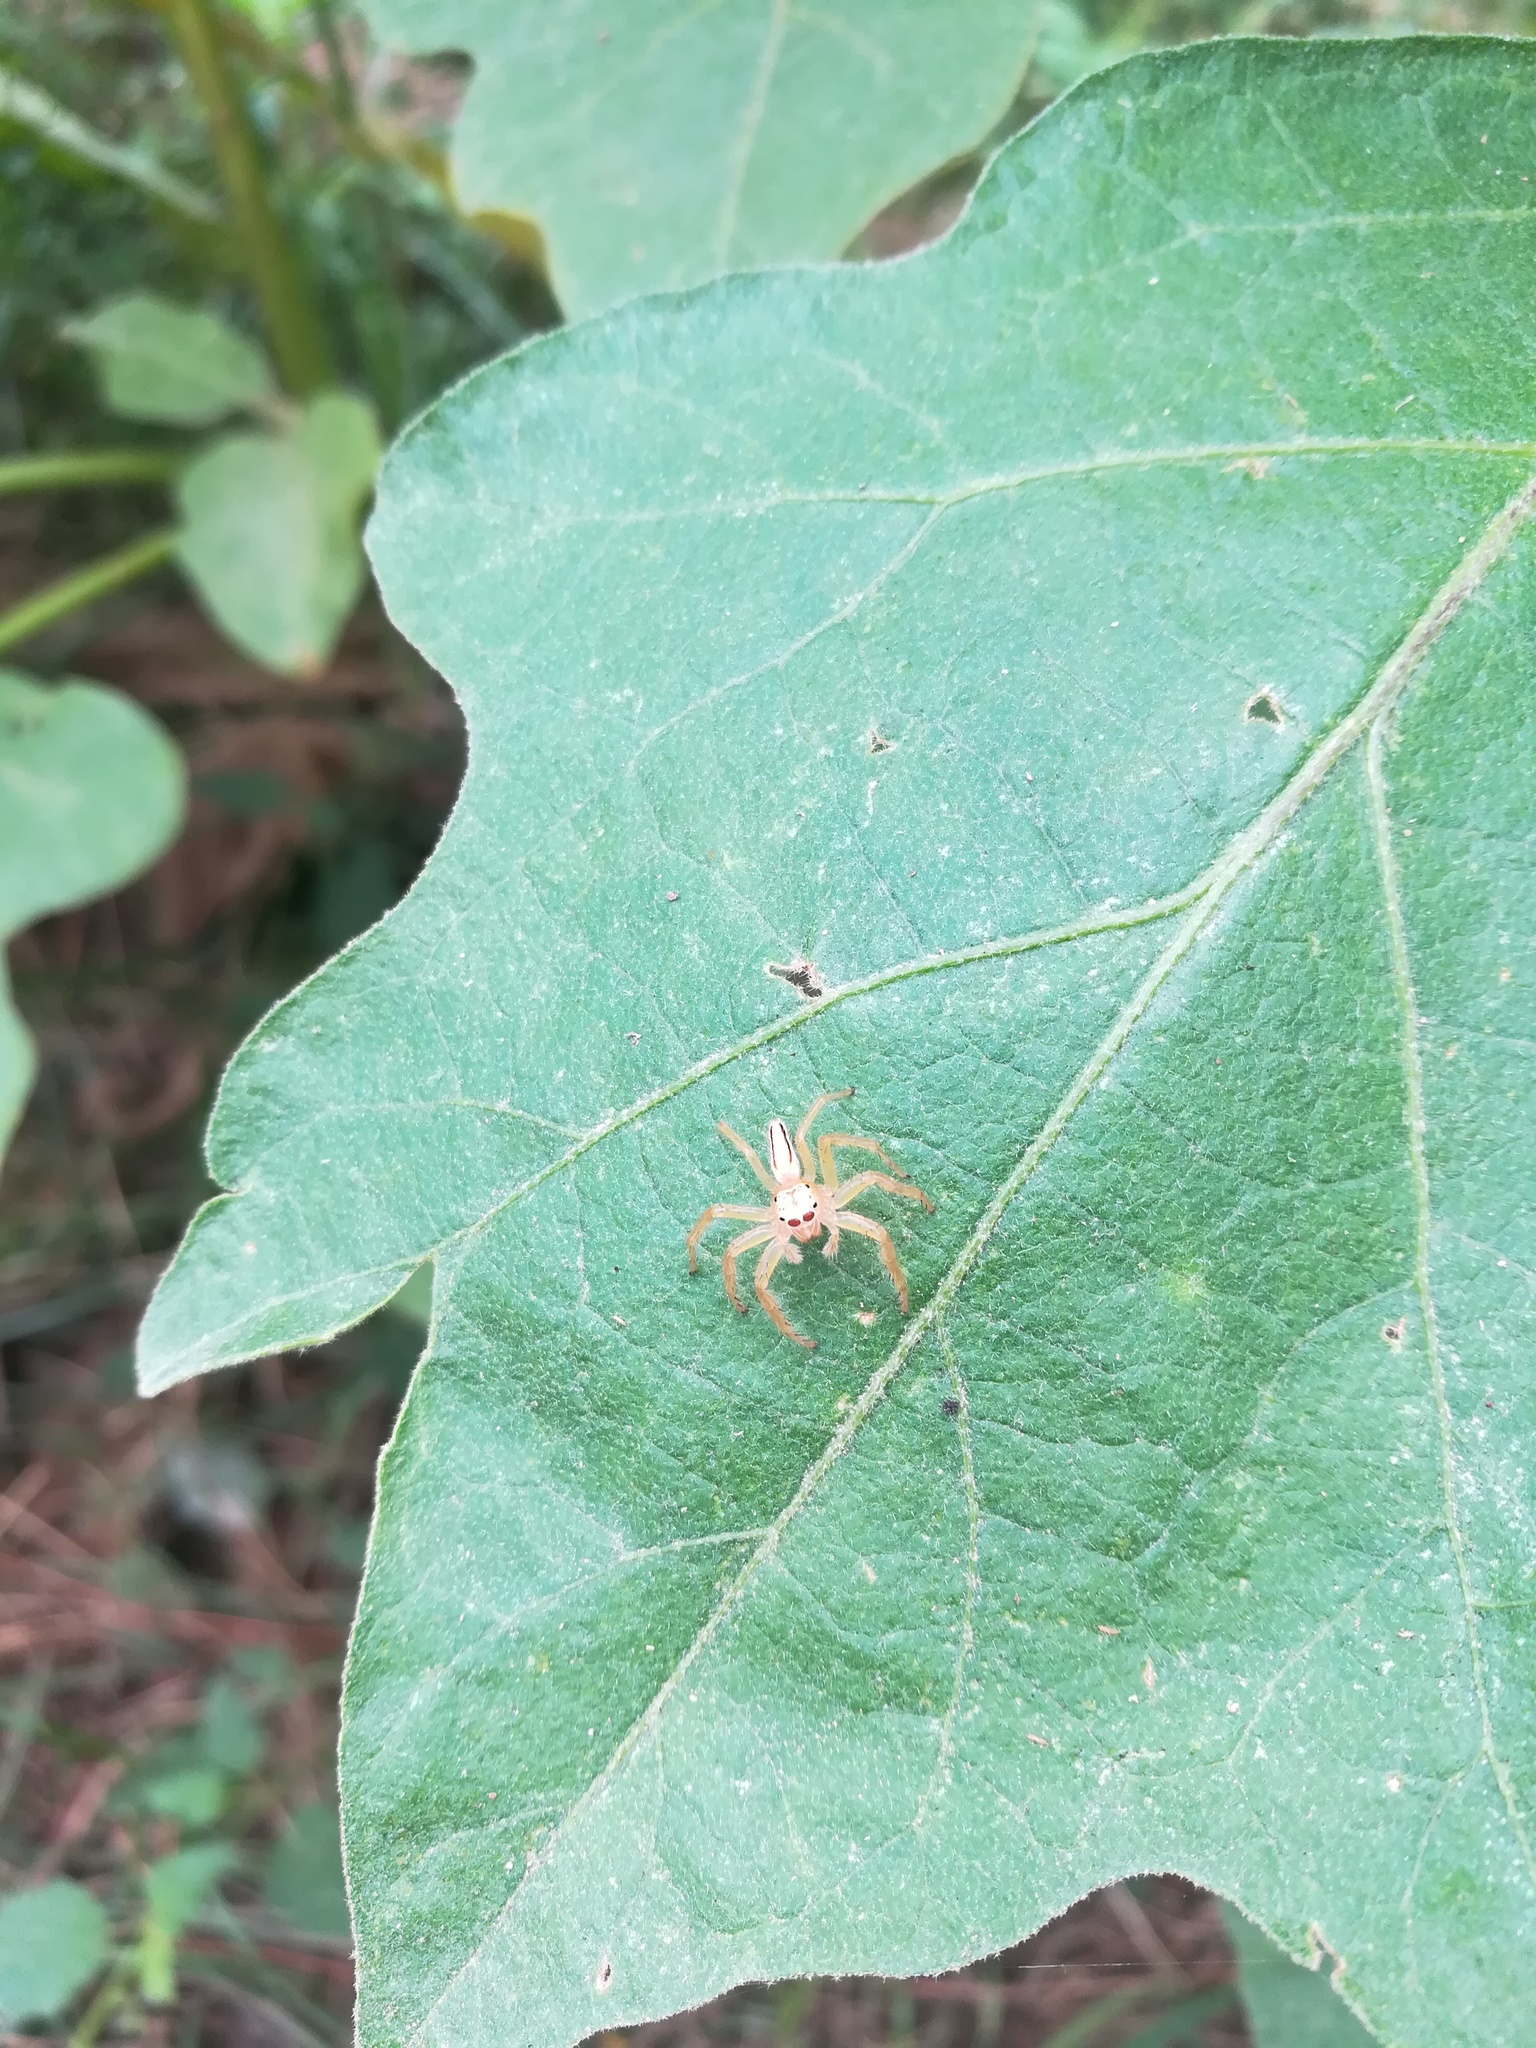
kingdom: Animalia
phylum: Arthropoda
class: Arachnida
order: Araneae
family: Salticidae
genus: Telamonia
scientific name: Telamonia dimidiata
